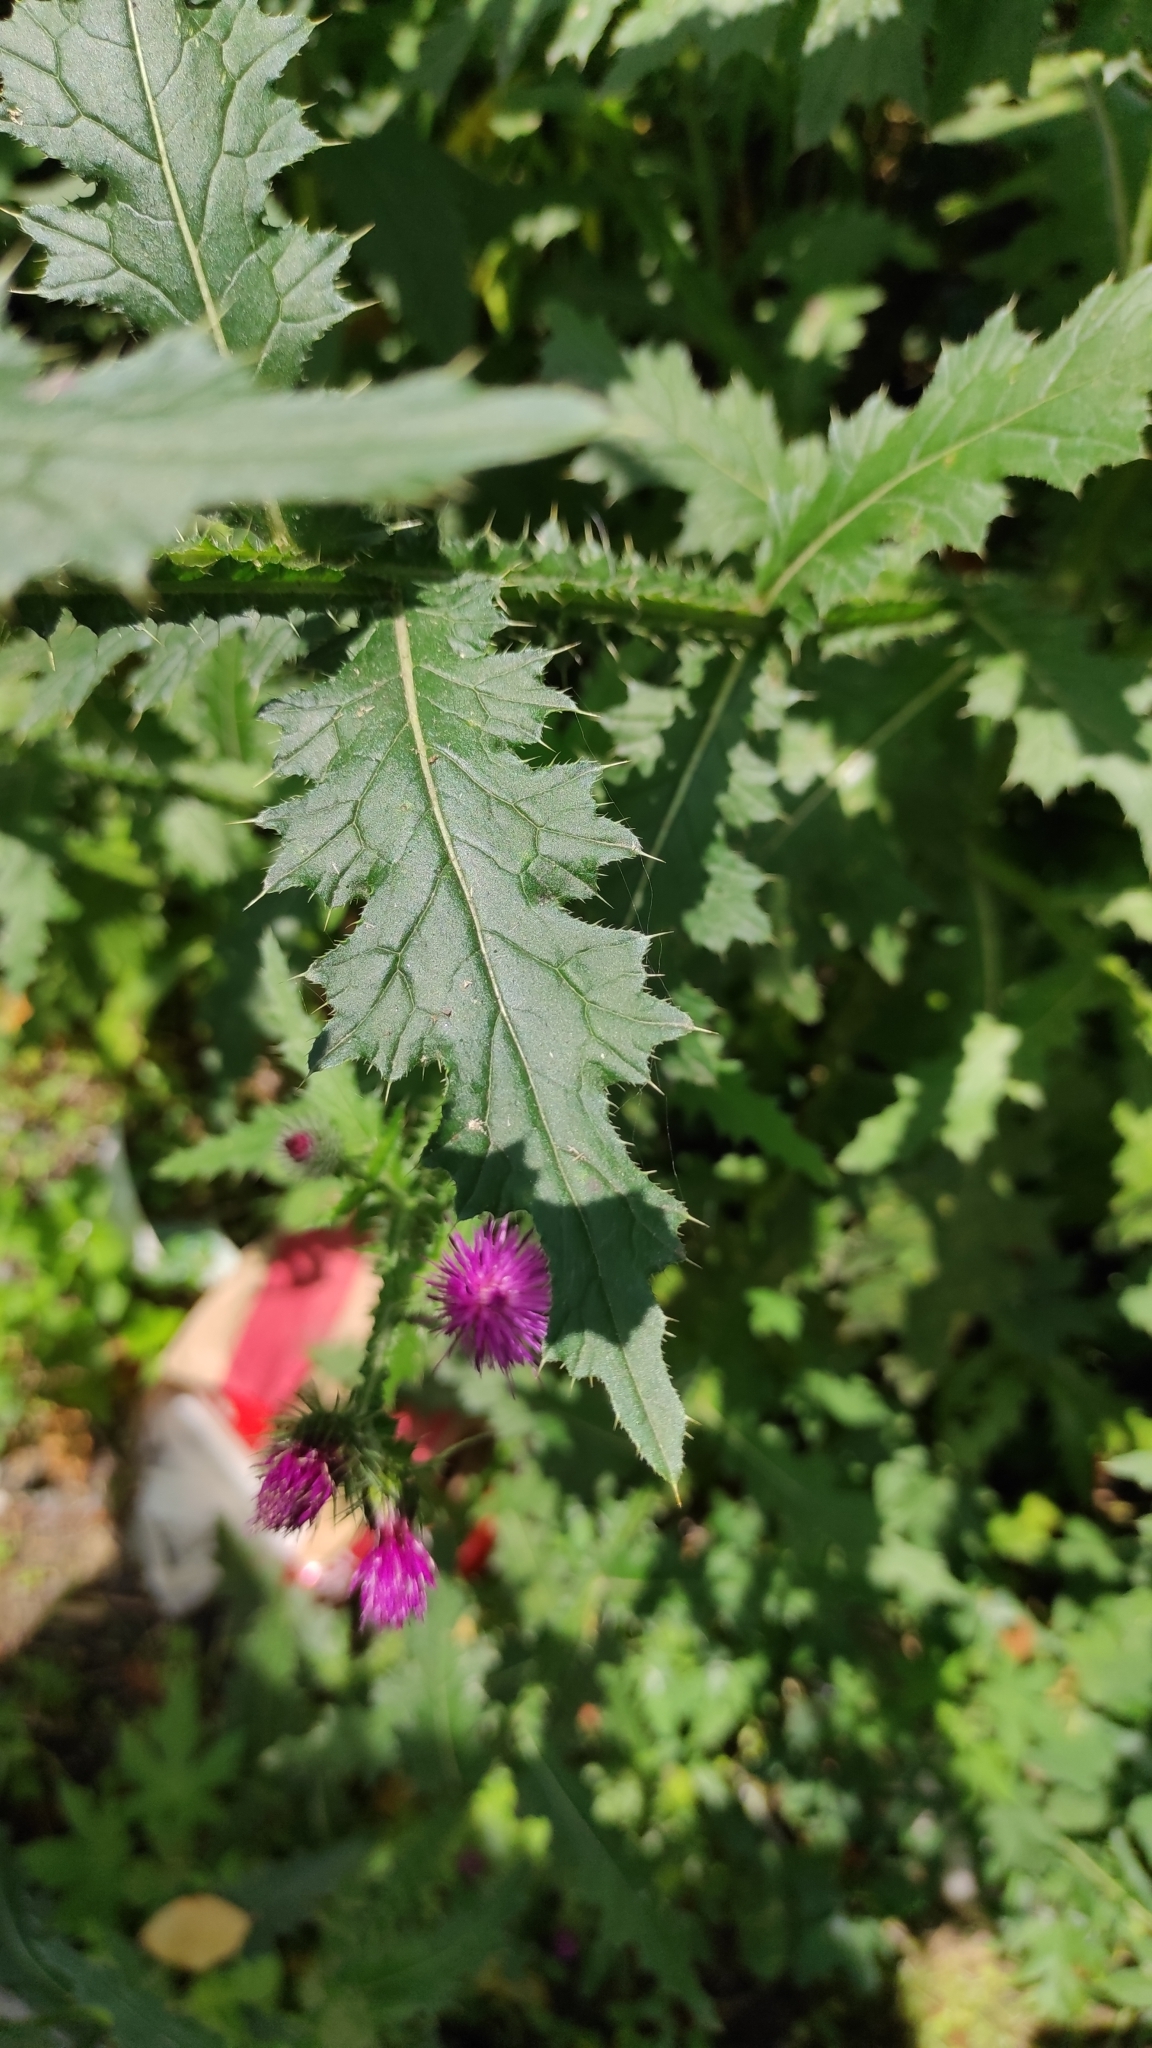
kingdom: Plantae
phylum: Tracheophyta
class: Magnoliopsida
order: Asterales
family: Asteraceae
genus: Carduus
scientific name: Carduus crispus
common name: Welted thistle
